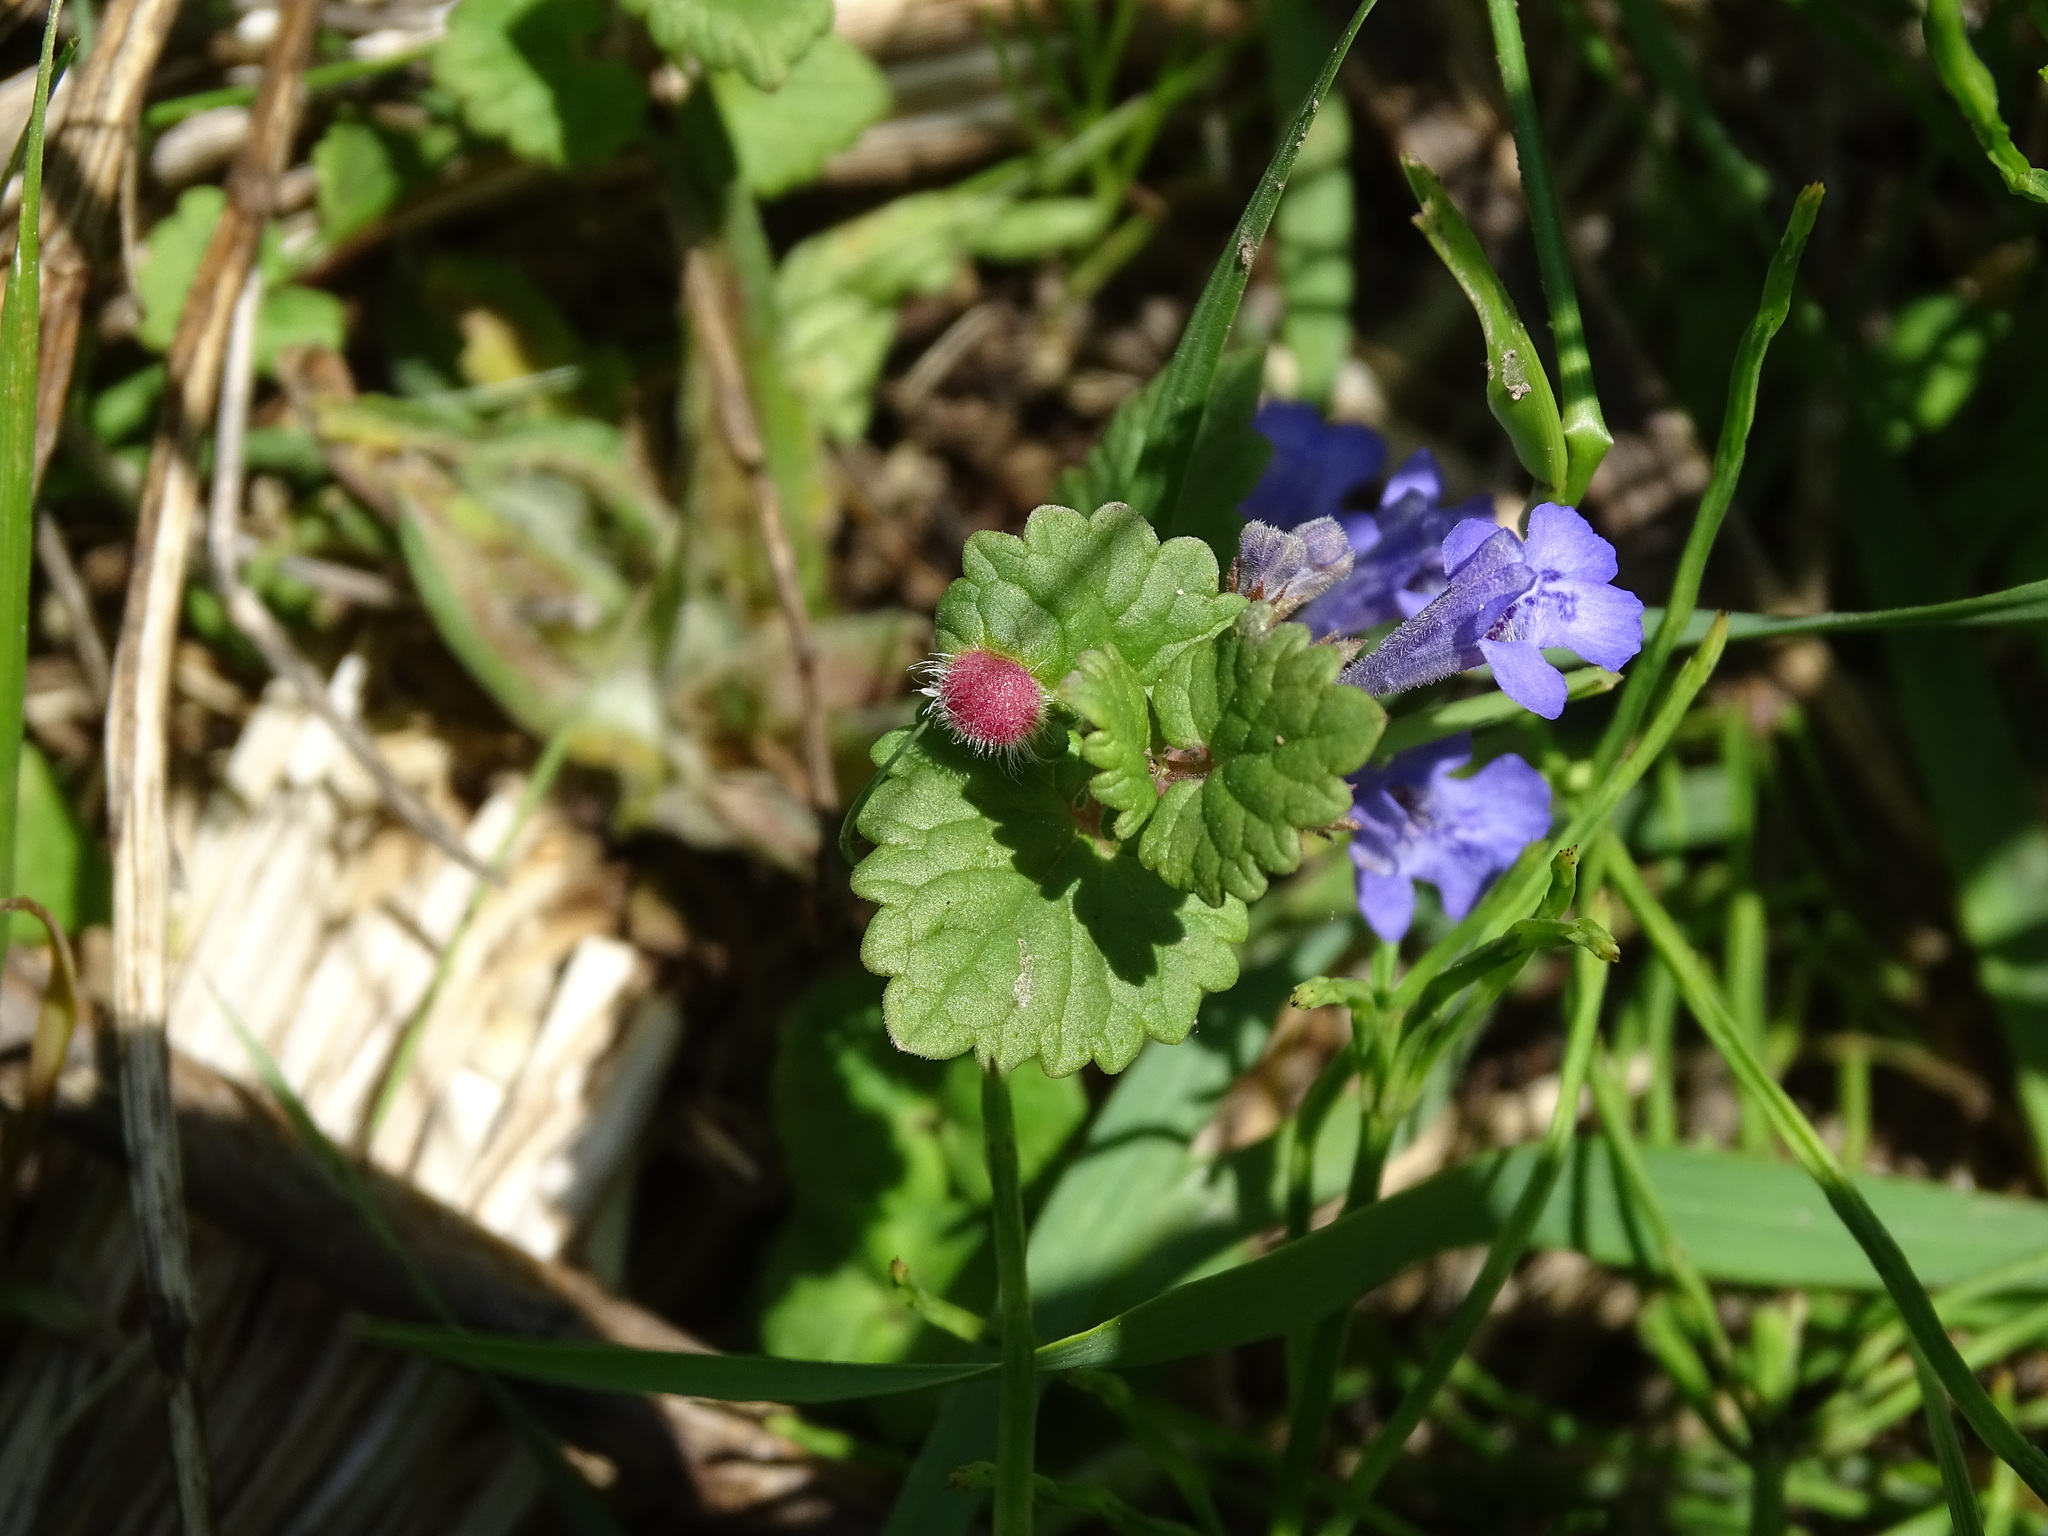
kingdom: Plantae
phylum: Tracheophyta
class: Magnoliopsida
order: Lamiales
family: Lamiaceae
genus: Glechoma
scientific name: Glechoma hederacea
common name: Ground ivy
